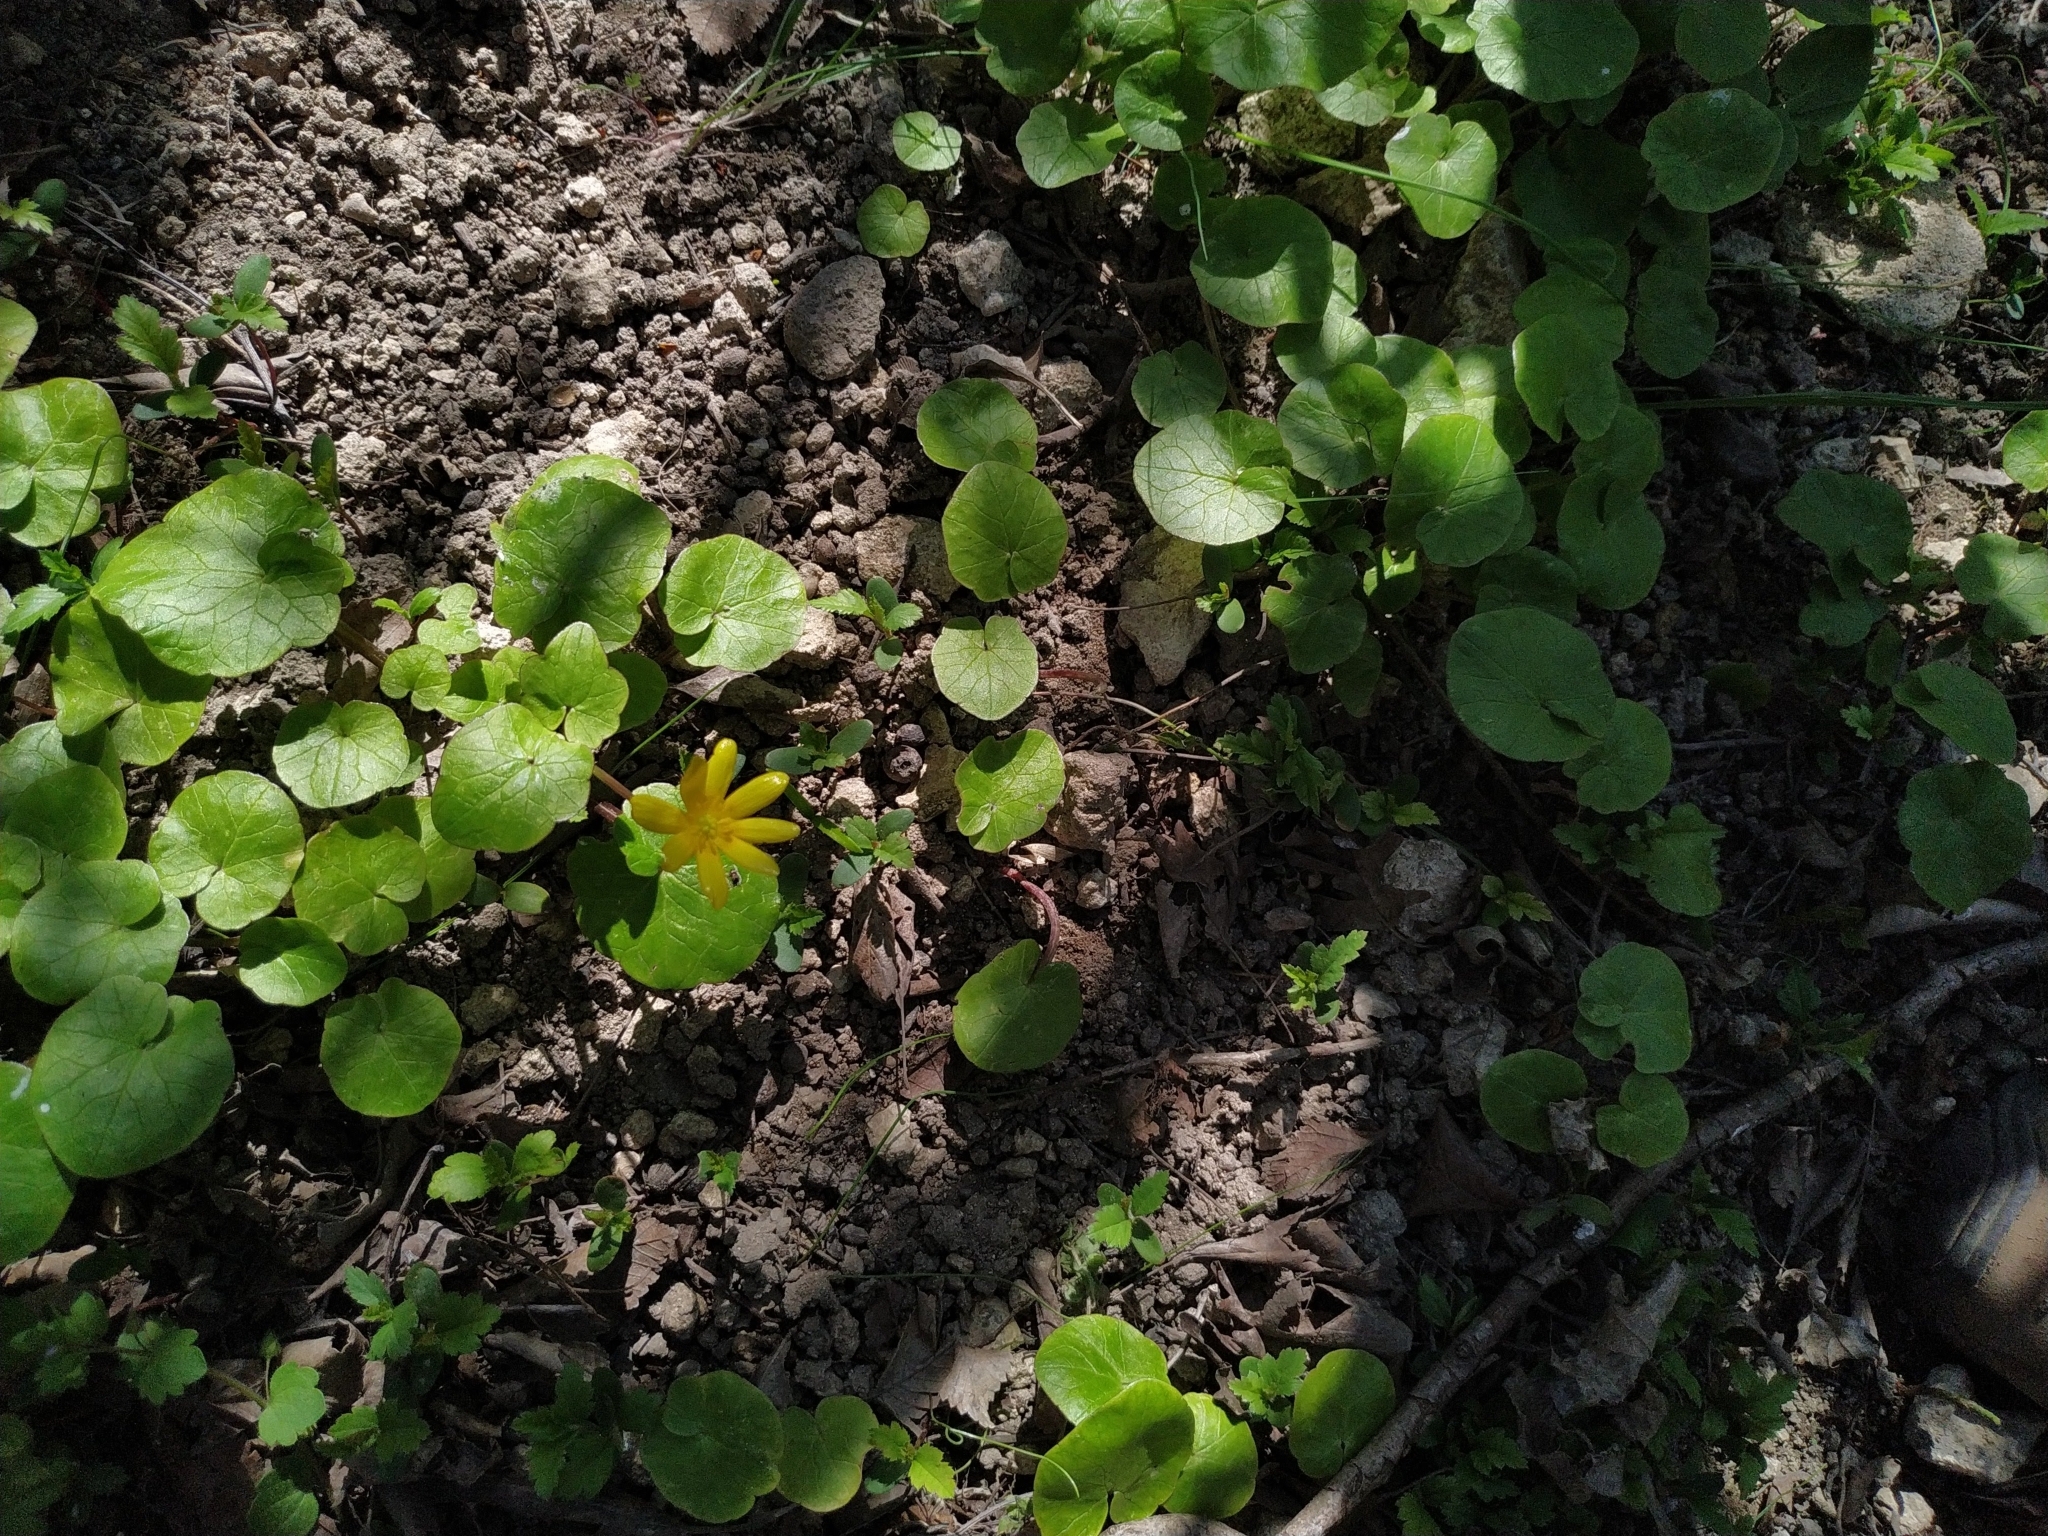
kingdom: Plantae
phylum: Tracheophyta
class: Magnoliopsida
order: Ranunculales
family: Ranunculaceae
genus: Ficaria
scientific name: Ficaria verna
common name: Lesser celandine
